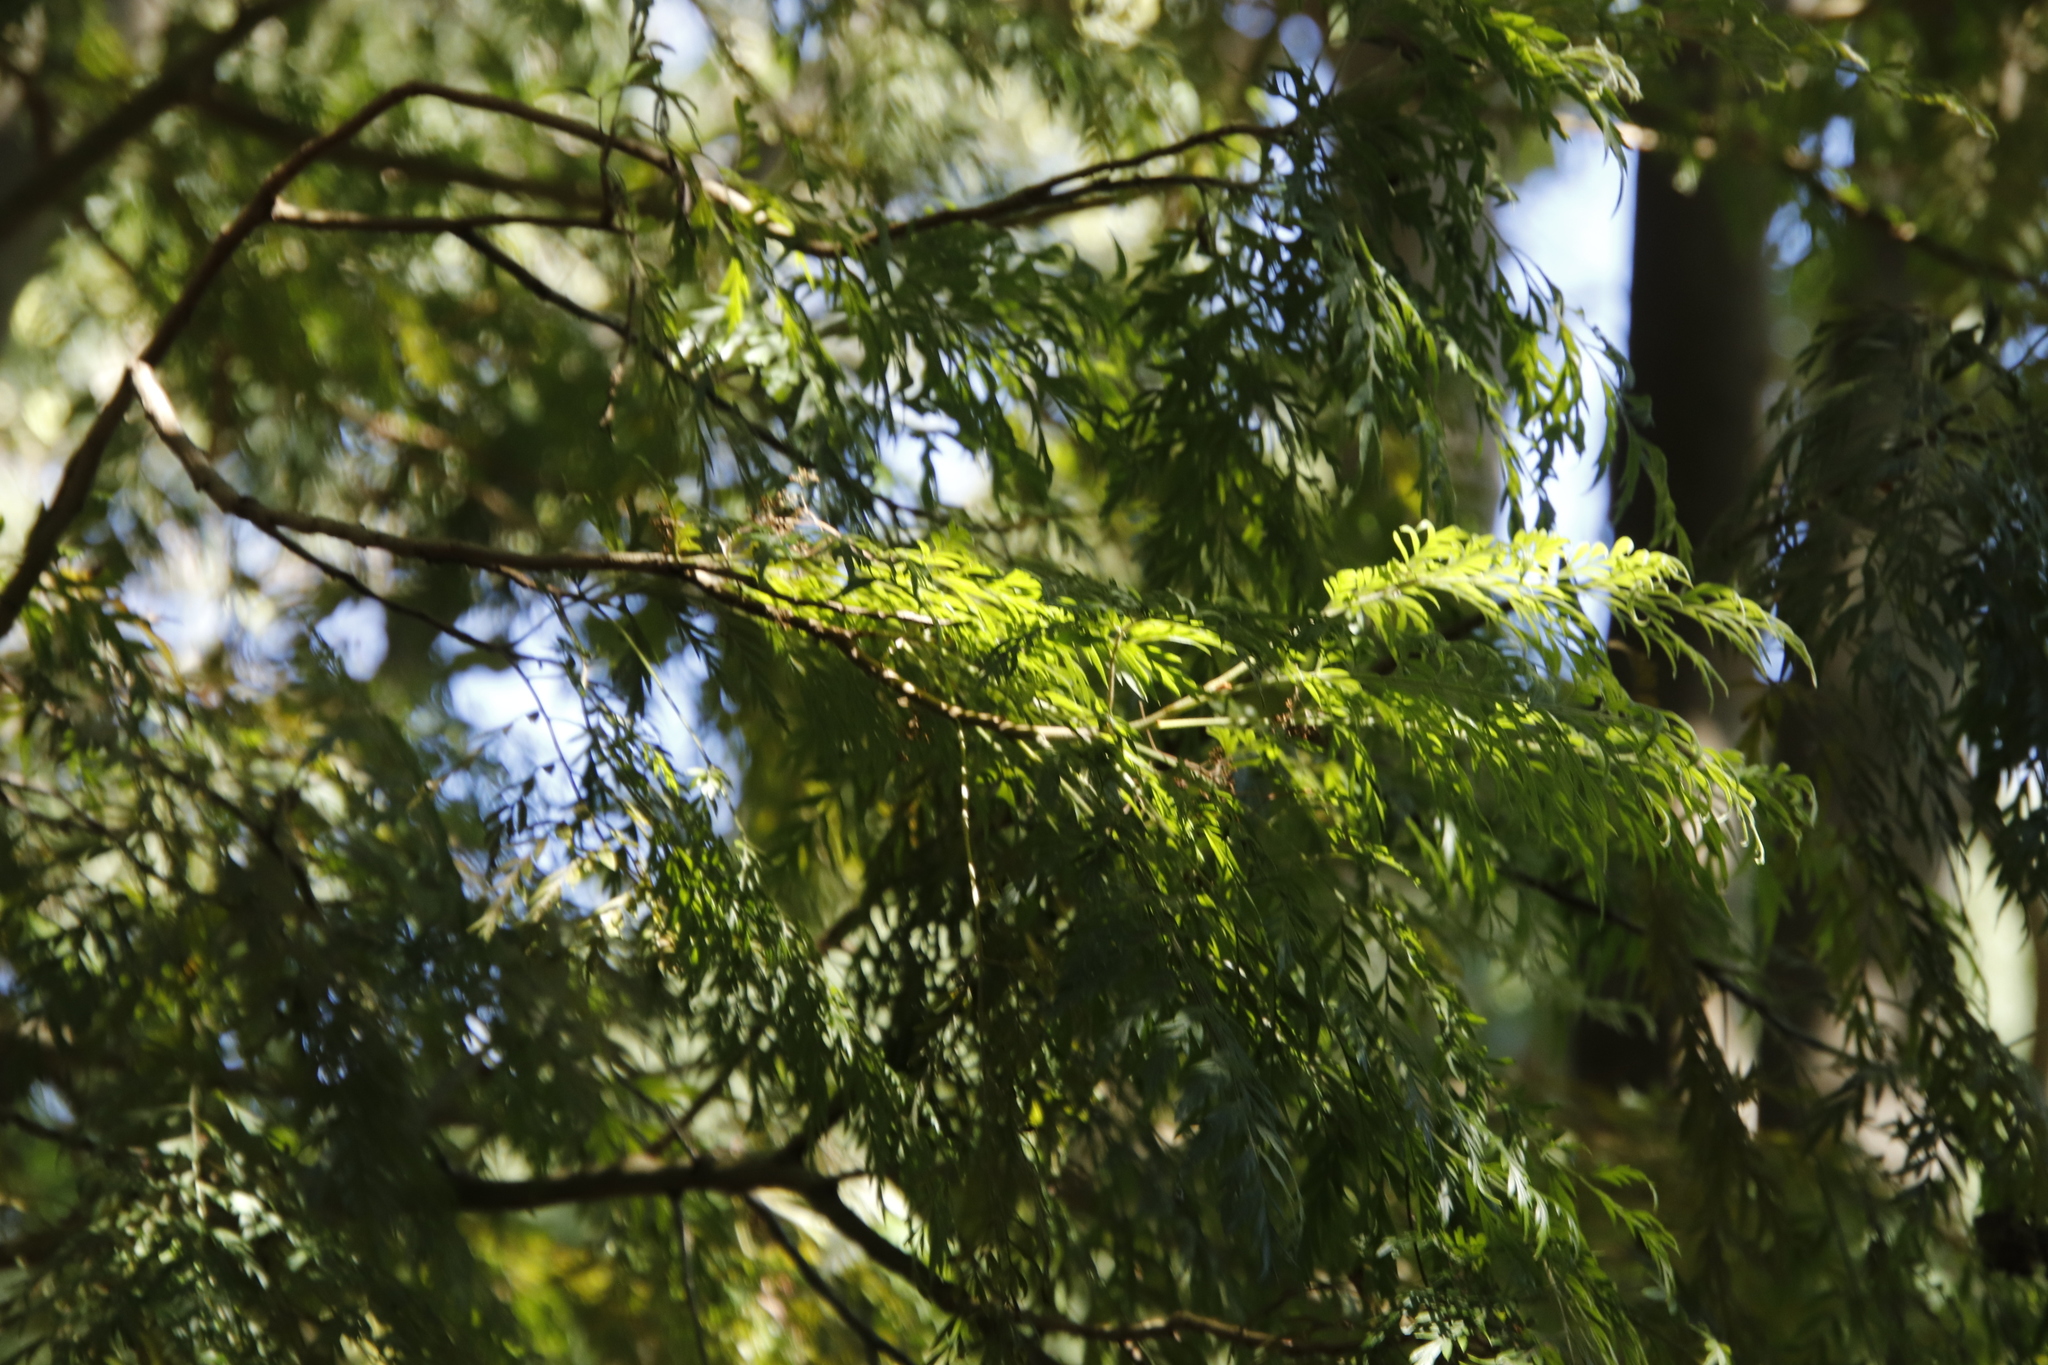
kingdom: Plantae
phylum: Tracheophyta
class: Magnoliopsida
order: Malpighiales
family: Salicaceae
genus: Salix
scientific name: Salix babylonica
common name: Weeping willow
